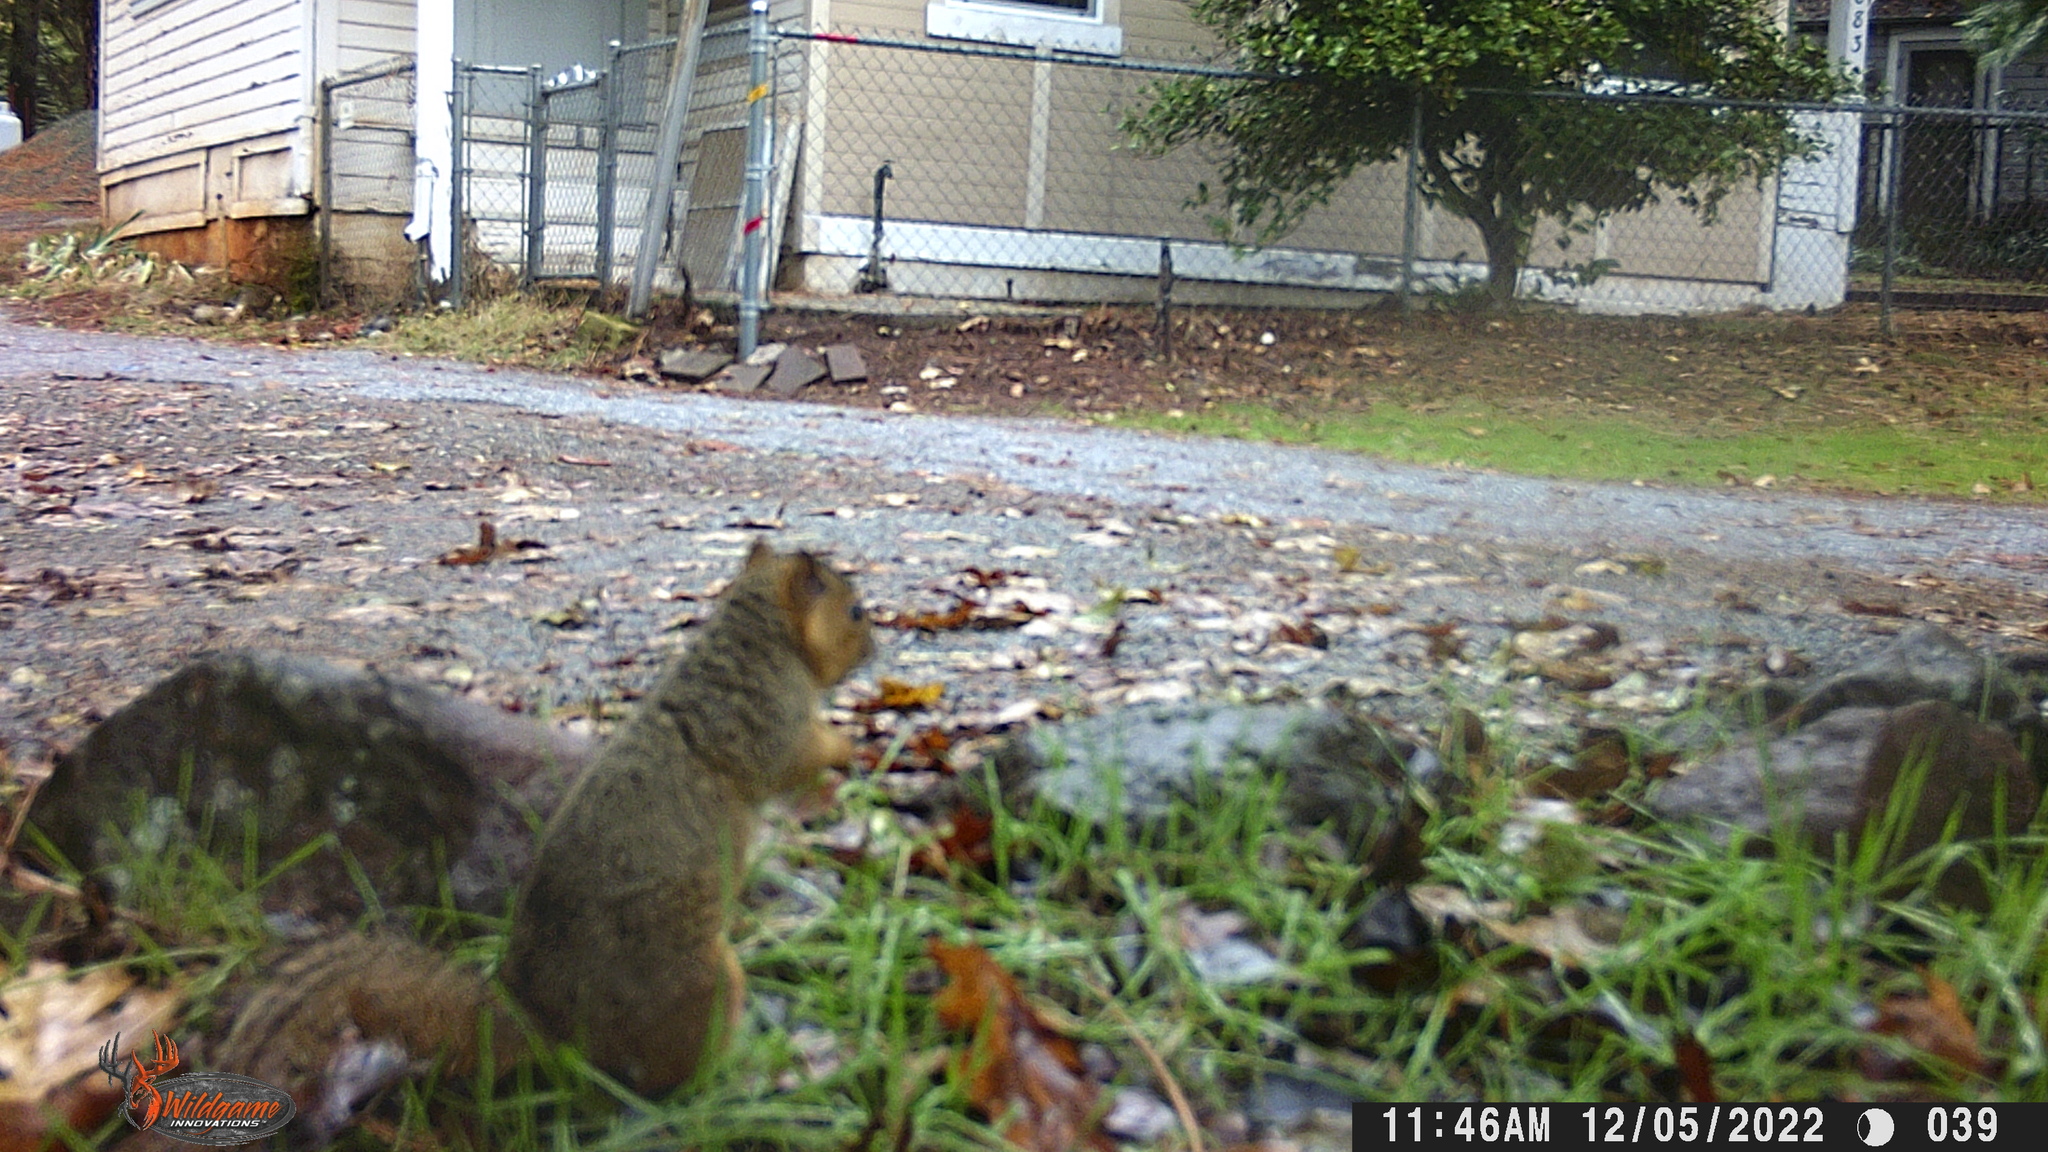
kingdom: Animalia
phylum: Chordata
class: Mammalia
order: Rodentia
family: Sciuridae
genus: Sciurus
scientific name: Sciurus niger
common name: Fox squirrel
